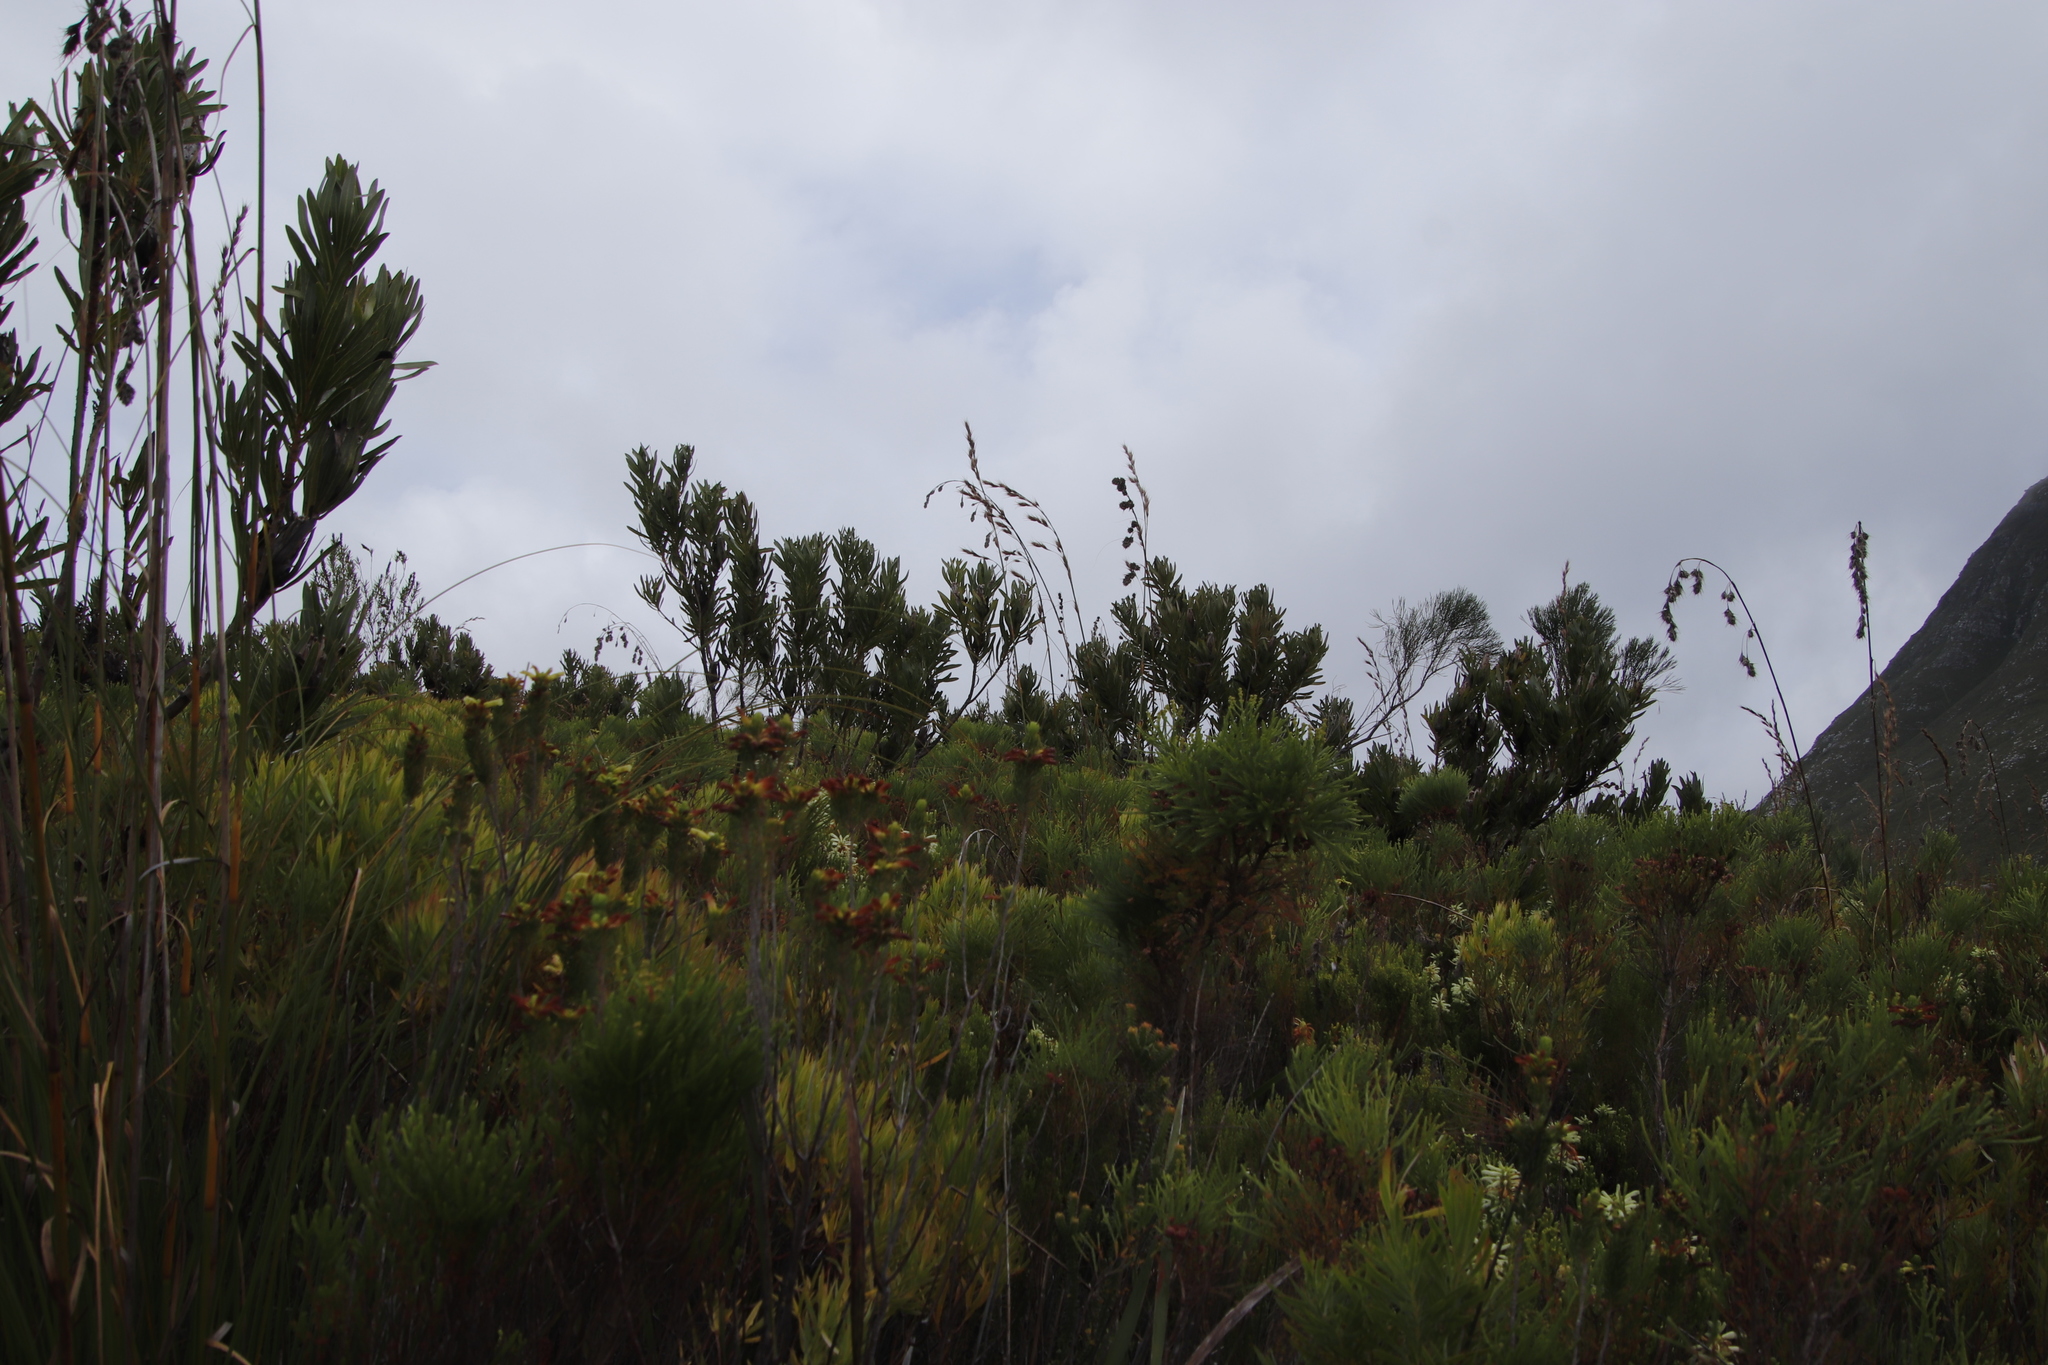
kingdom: Plantae
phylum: Tracheophyta
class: Magnoliopsida
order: Proteales
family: Proteaceae
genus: Protea
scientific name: Protea lepidocarpodendron
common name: Black-bearded protea
